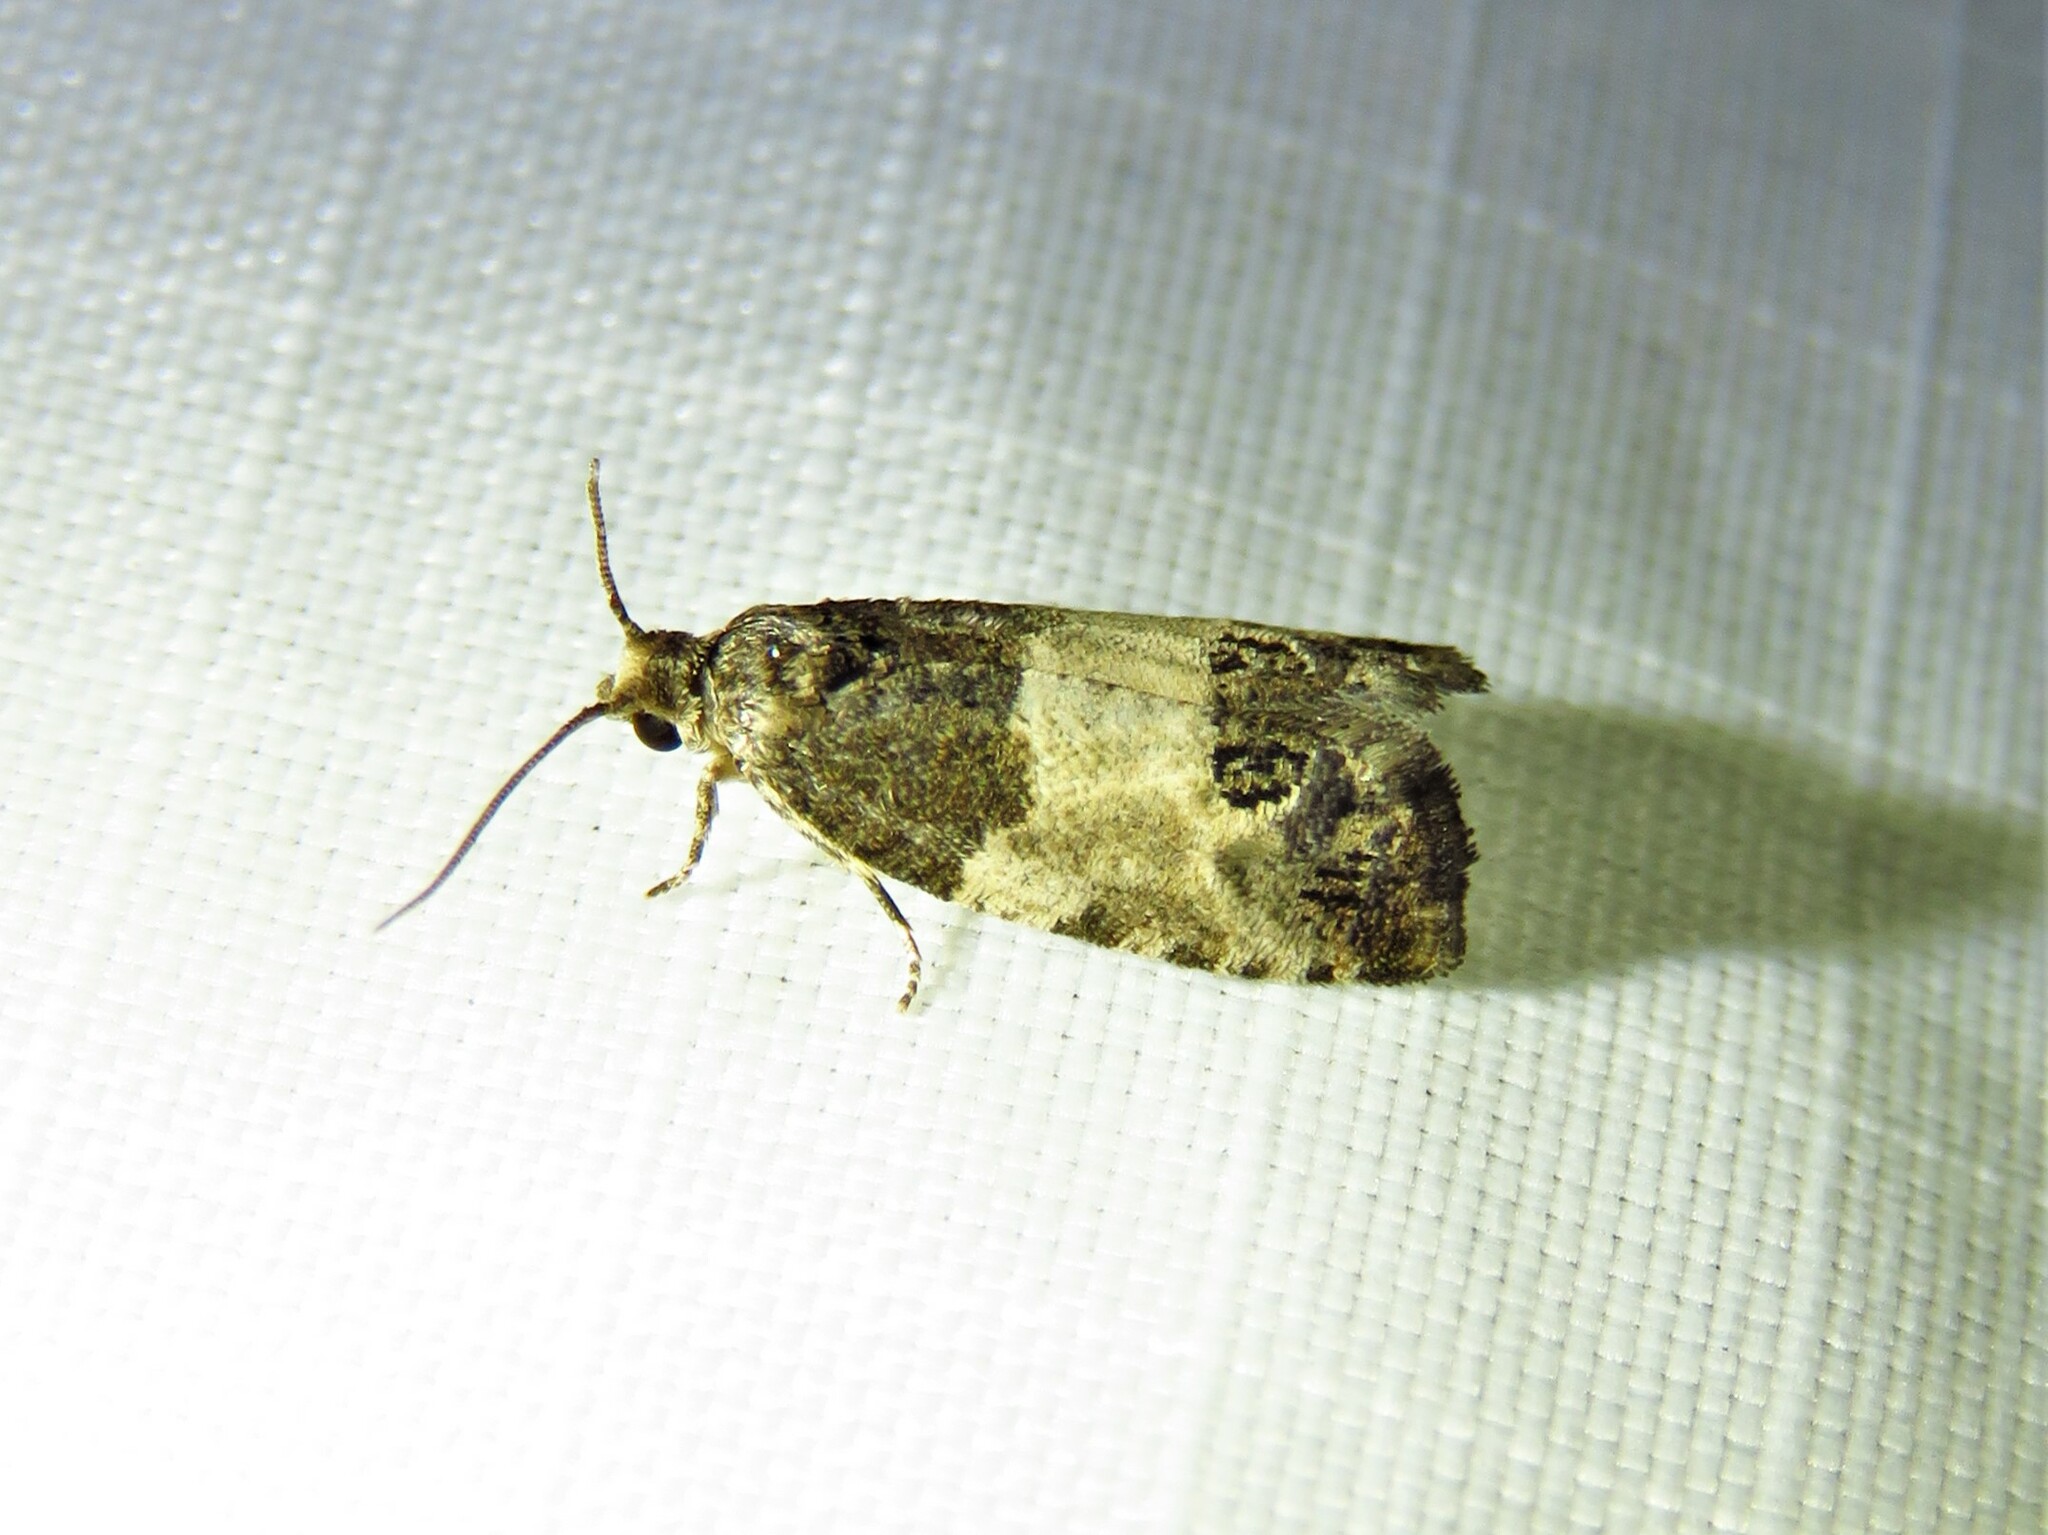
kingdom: Animalia
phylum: Arthropoda
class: Insecta
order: Lepidoptera
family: Tortricidae
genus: Spilonota
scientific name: Spilonota ocellana
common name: Bud moth
